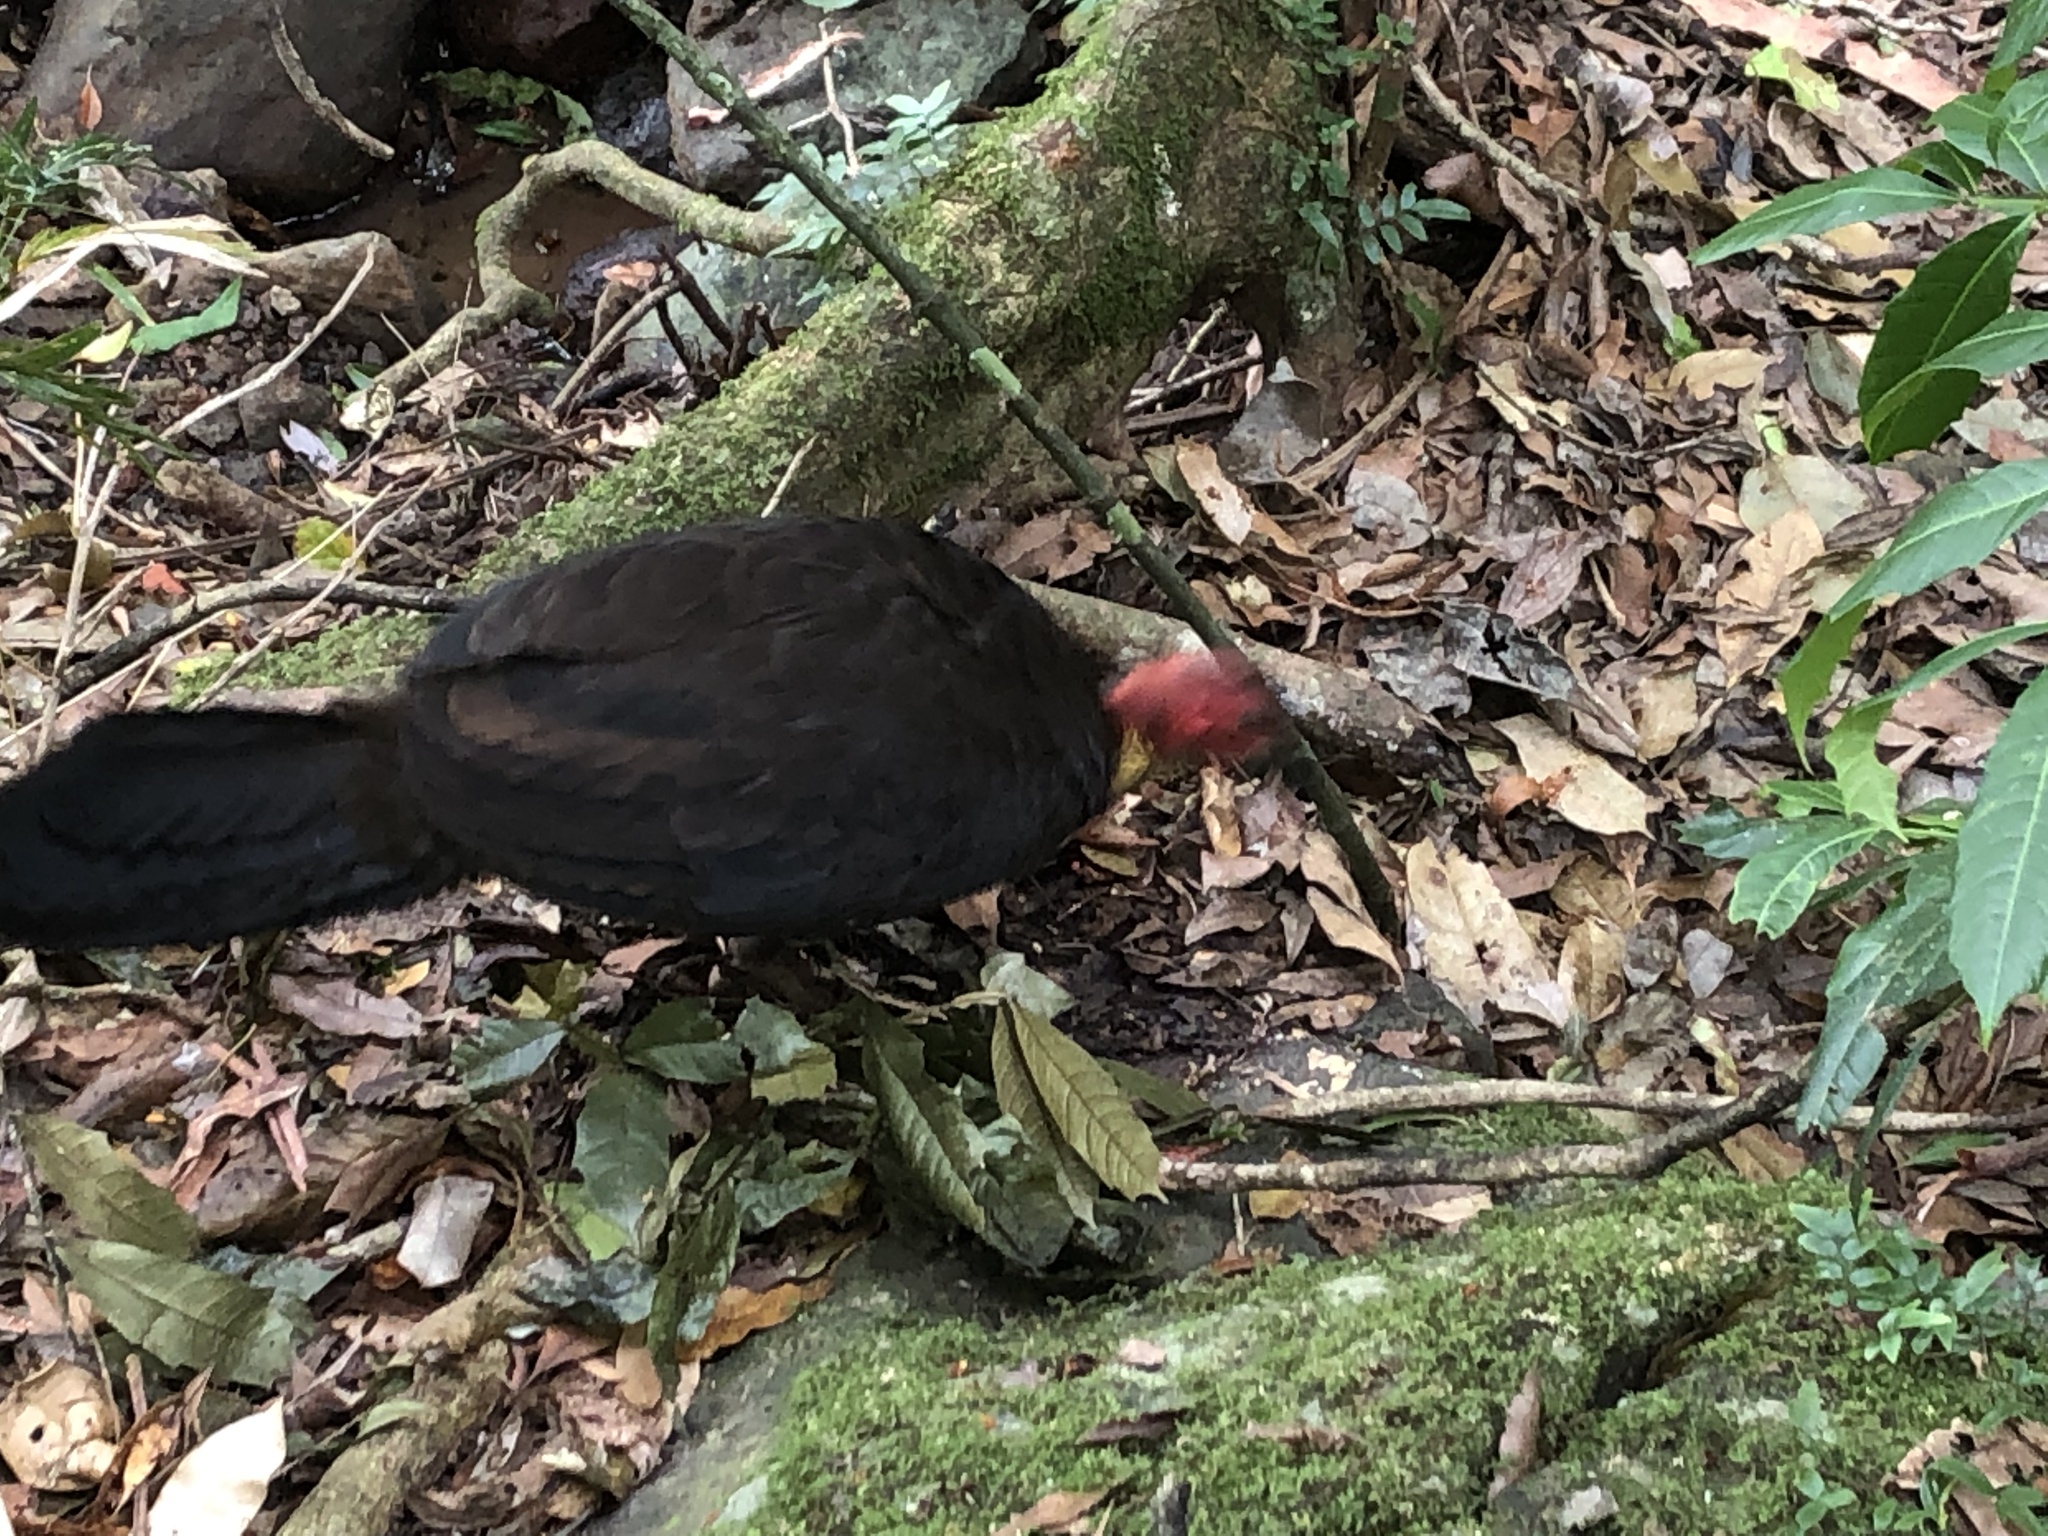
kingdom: Animalia
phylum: Chordata
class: Aves
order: Galliformes
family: Megapodiidae
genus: Alectura
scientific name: Alectura lathami
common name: Australian brushturkey
